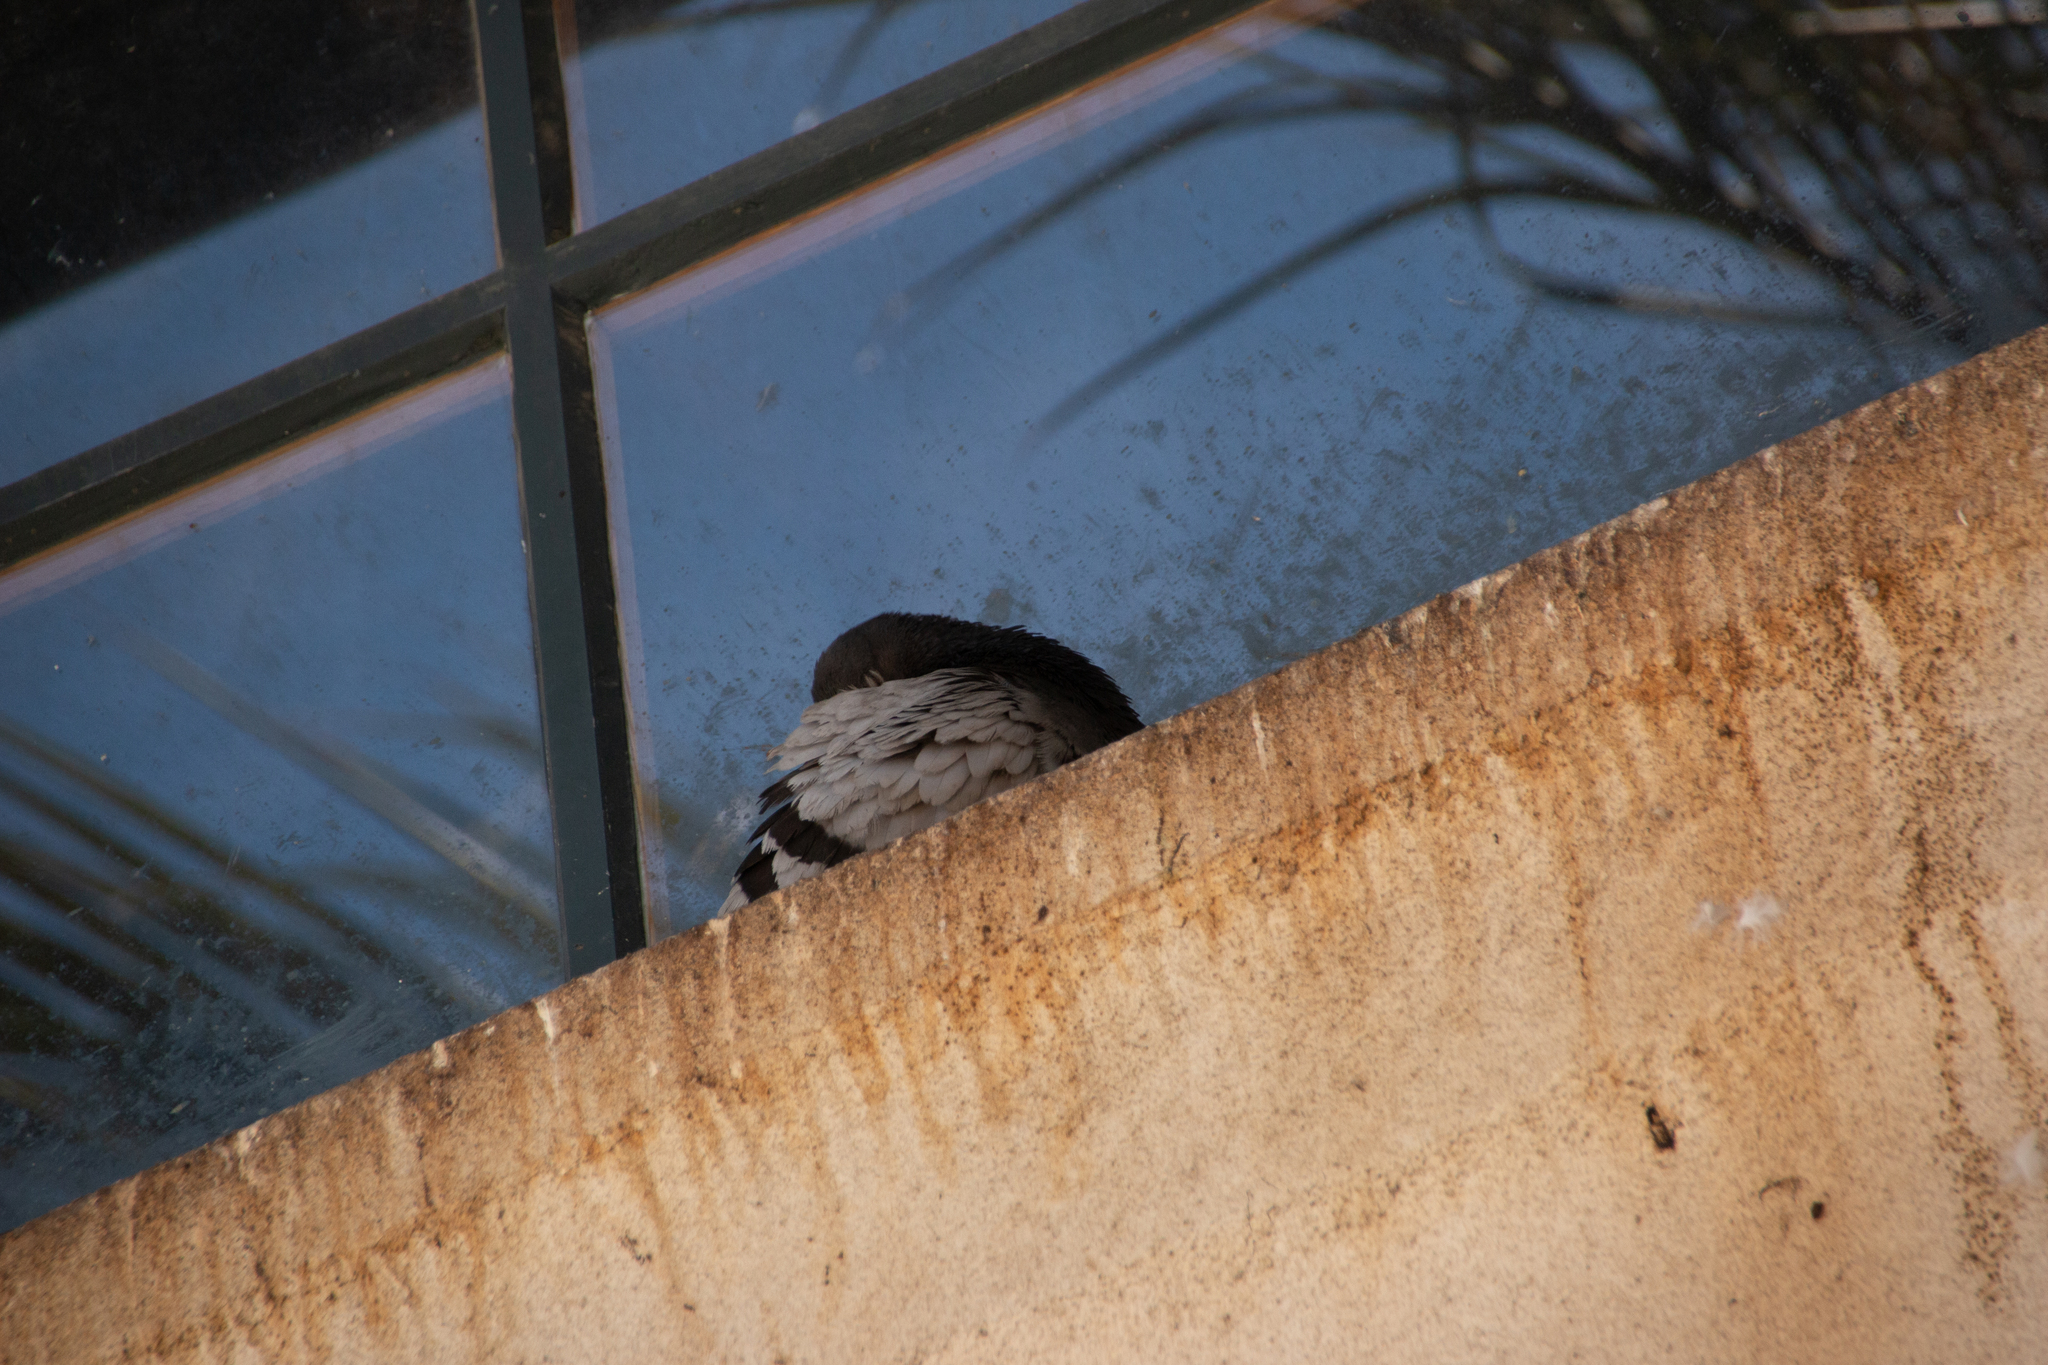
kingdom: Animalia
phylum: Chordata
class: Aves
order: Columbiformes
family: Columbidae
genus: Columba
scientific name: Columba livia
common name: Rock pigeon
